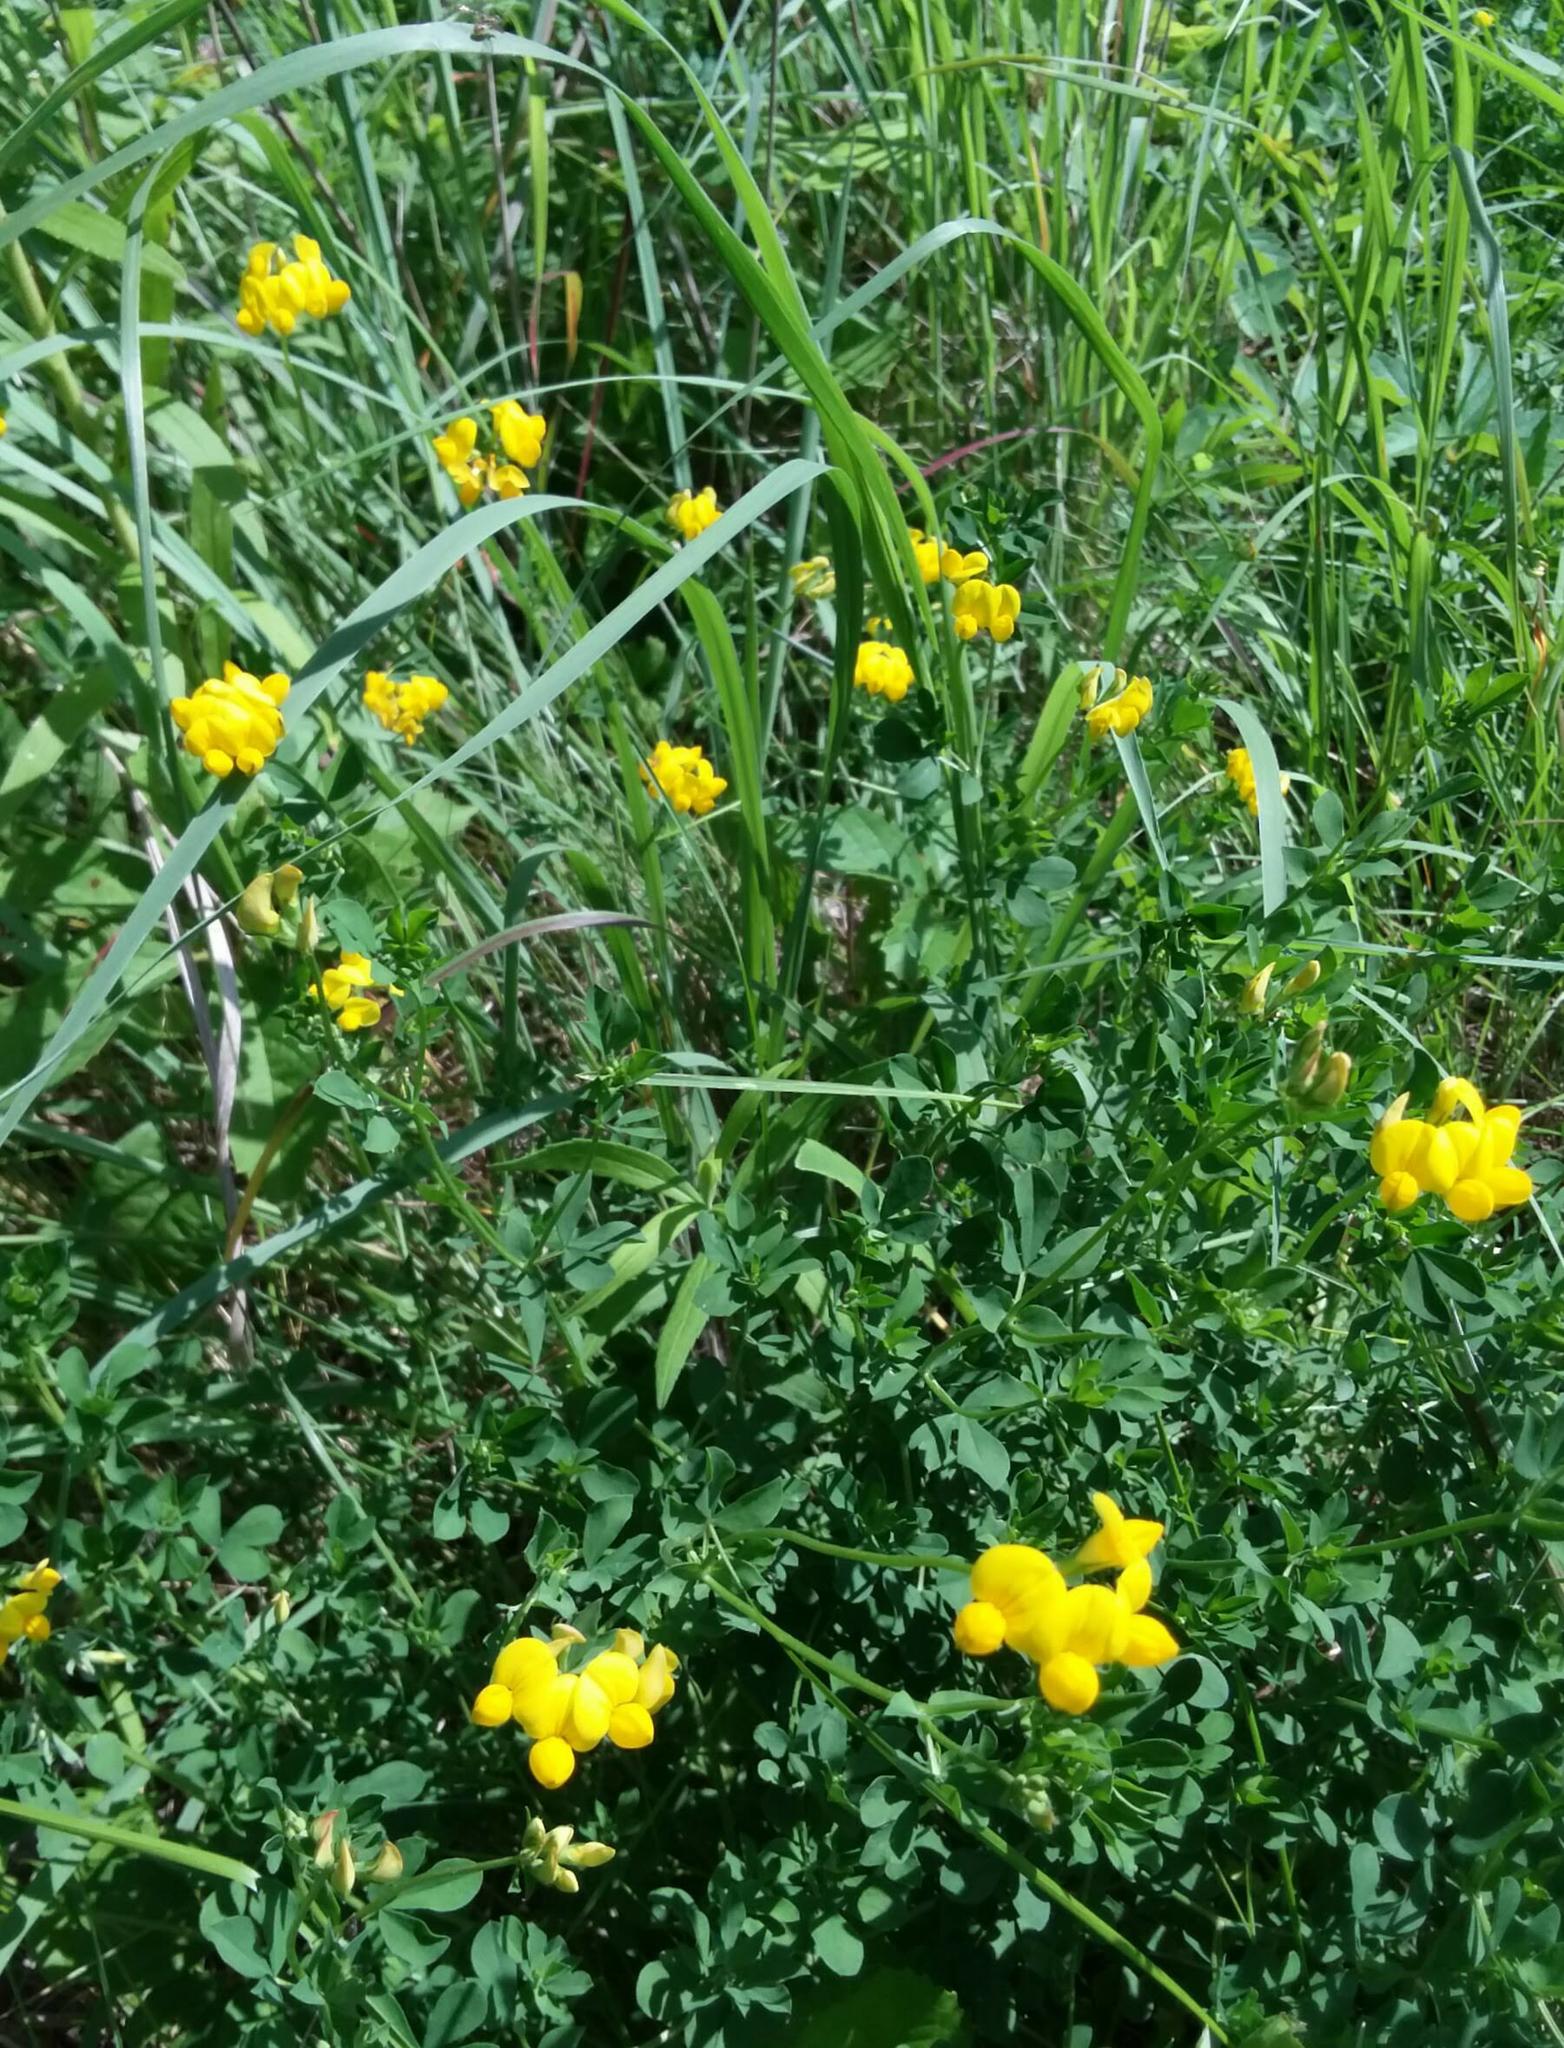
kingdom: Plantae
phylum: Tracheophyta
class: Magnoliopsida
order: Fabales
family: Fabaceae
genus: Lotus
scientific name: Lotus corniculatus
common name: Common bird's-foot-trefoil
